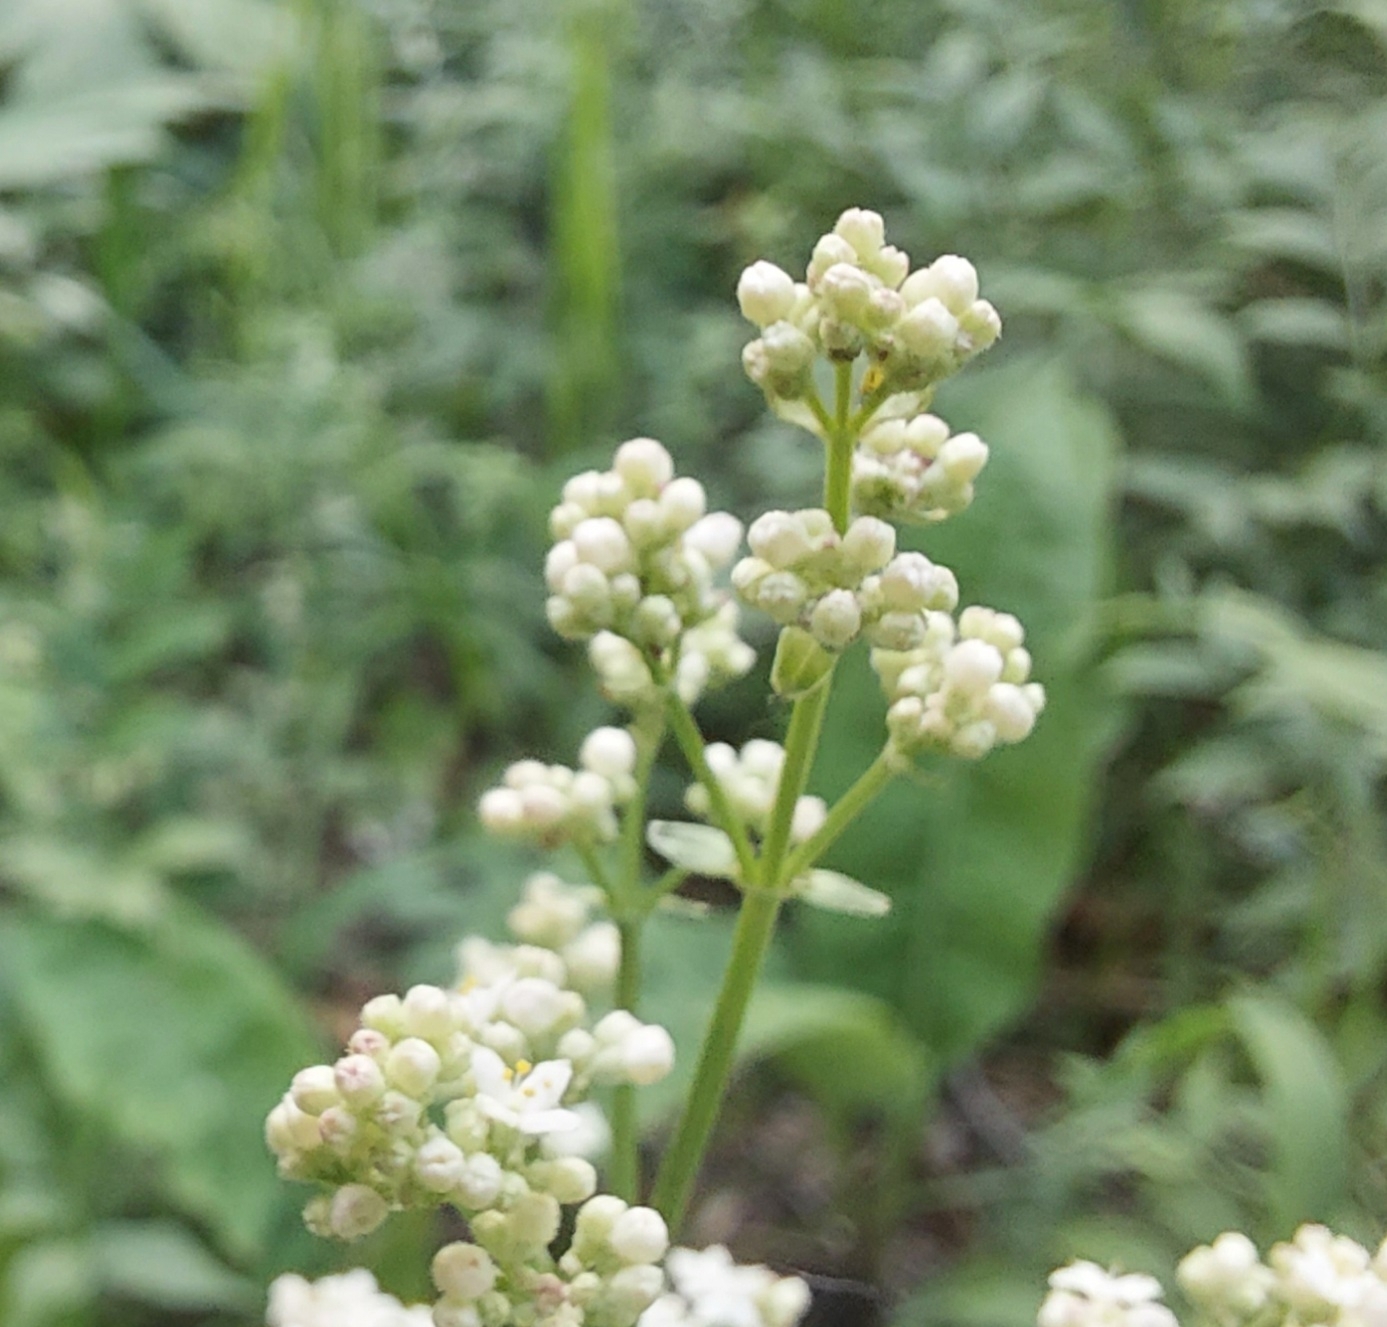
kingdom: Plantae
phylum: Tracheophyta
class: Magnoliopsida
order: Gentianales
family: Rubiaceae
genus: Galium
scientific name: Galium boreale
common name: Northern bedstraw
